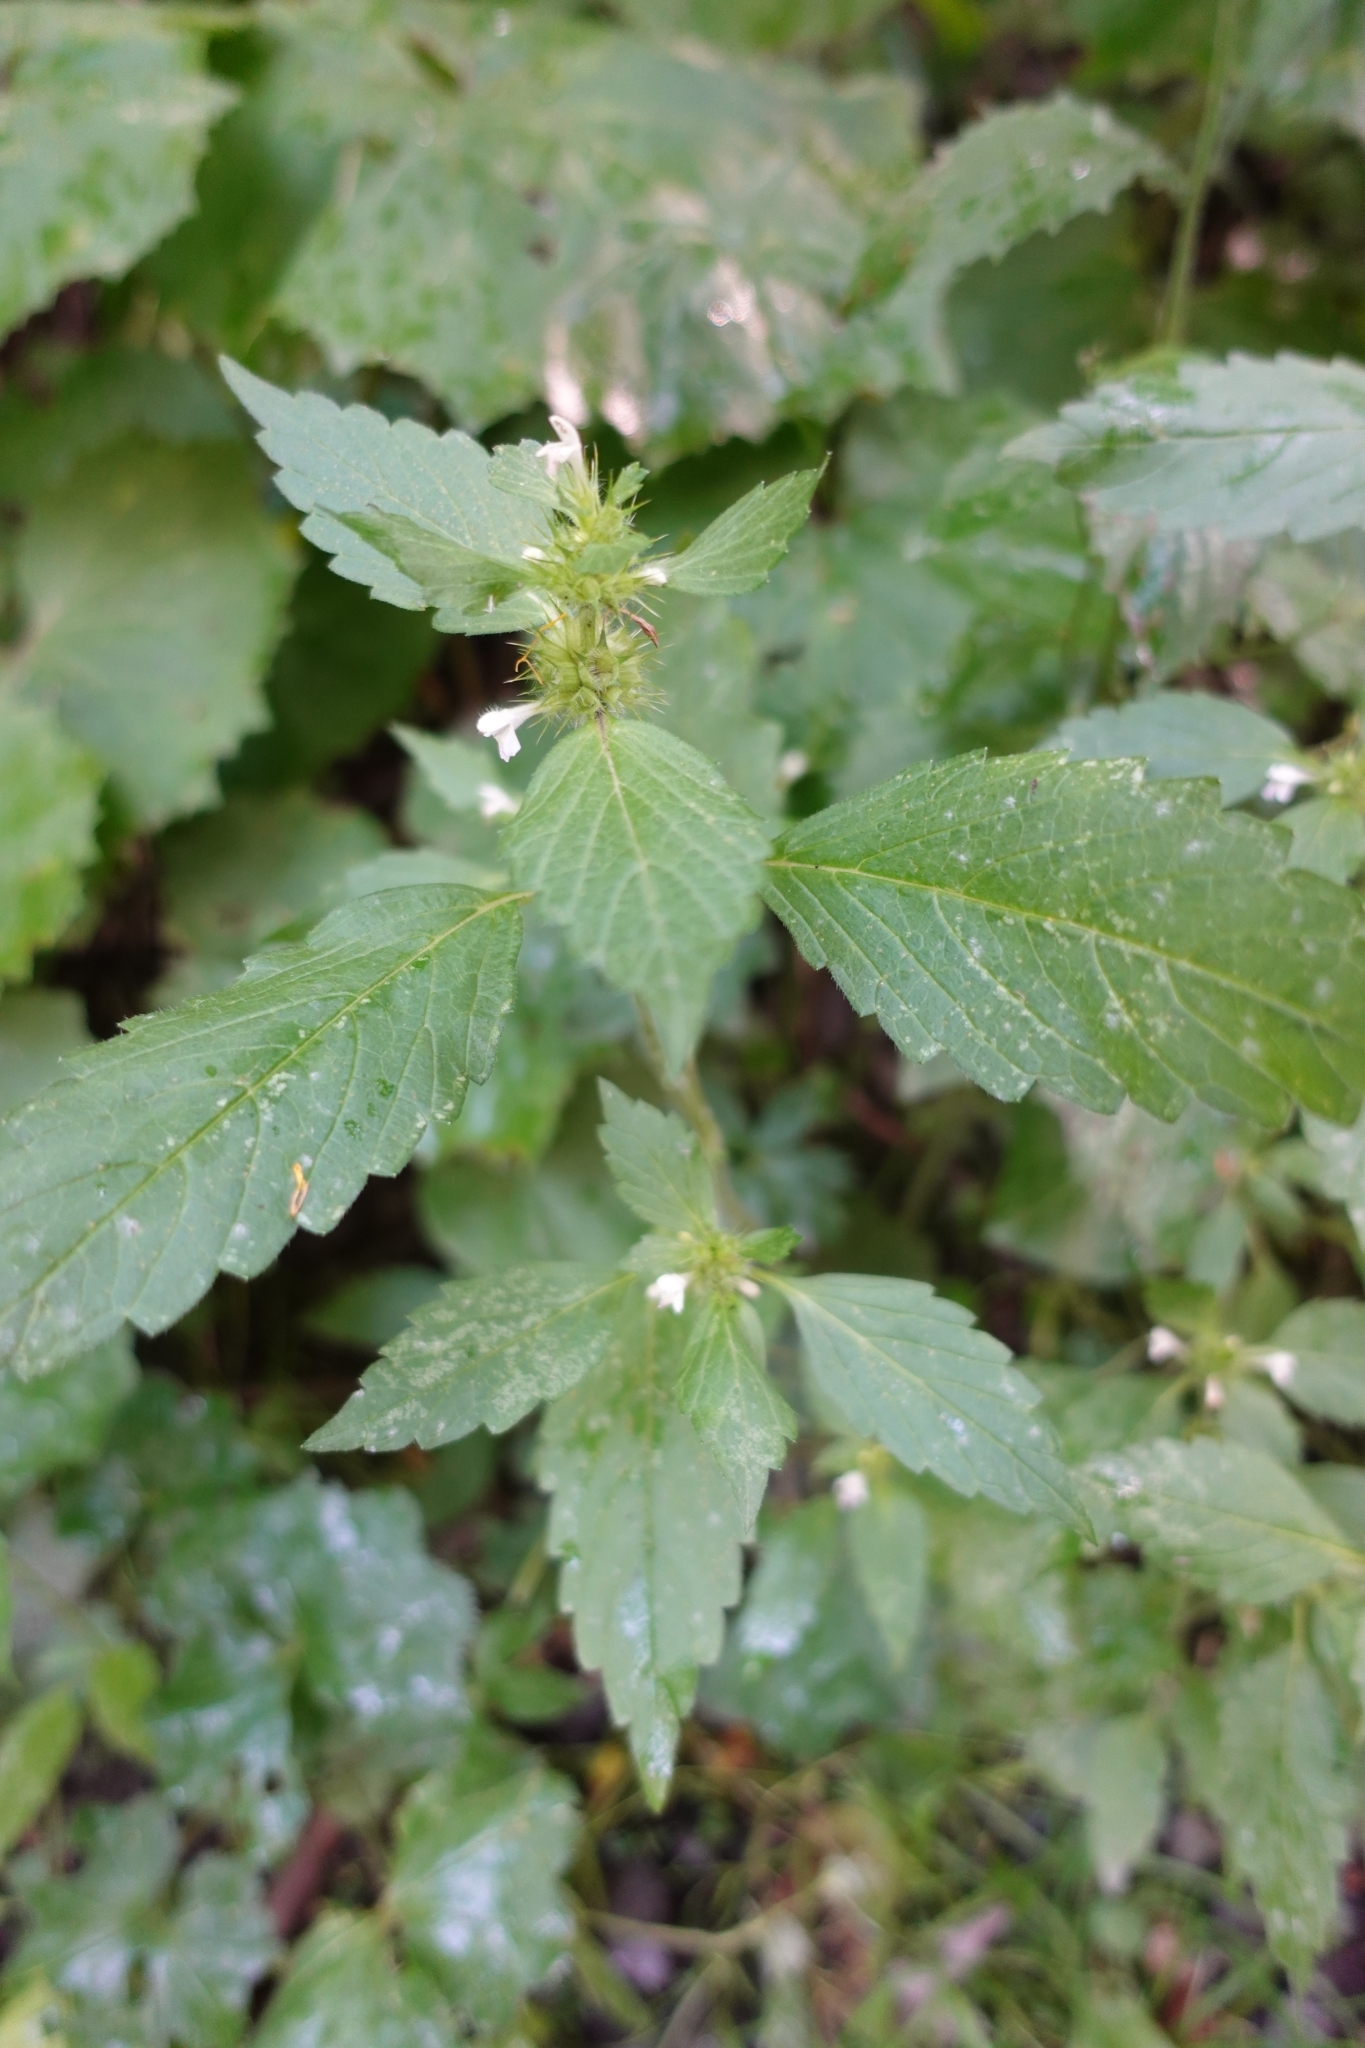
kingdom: Plantae
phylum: Tracheophyta
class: Magnoliopsida
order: Lamiales
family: Lamiaceae
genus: Galeopsis
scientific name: Galeopsis bifida
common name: Bifid hemp-nettle
